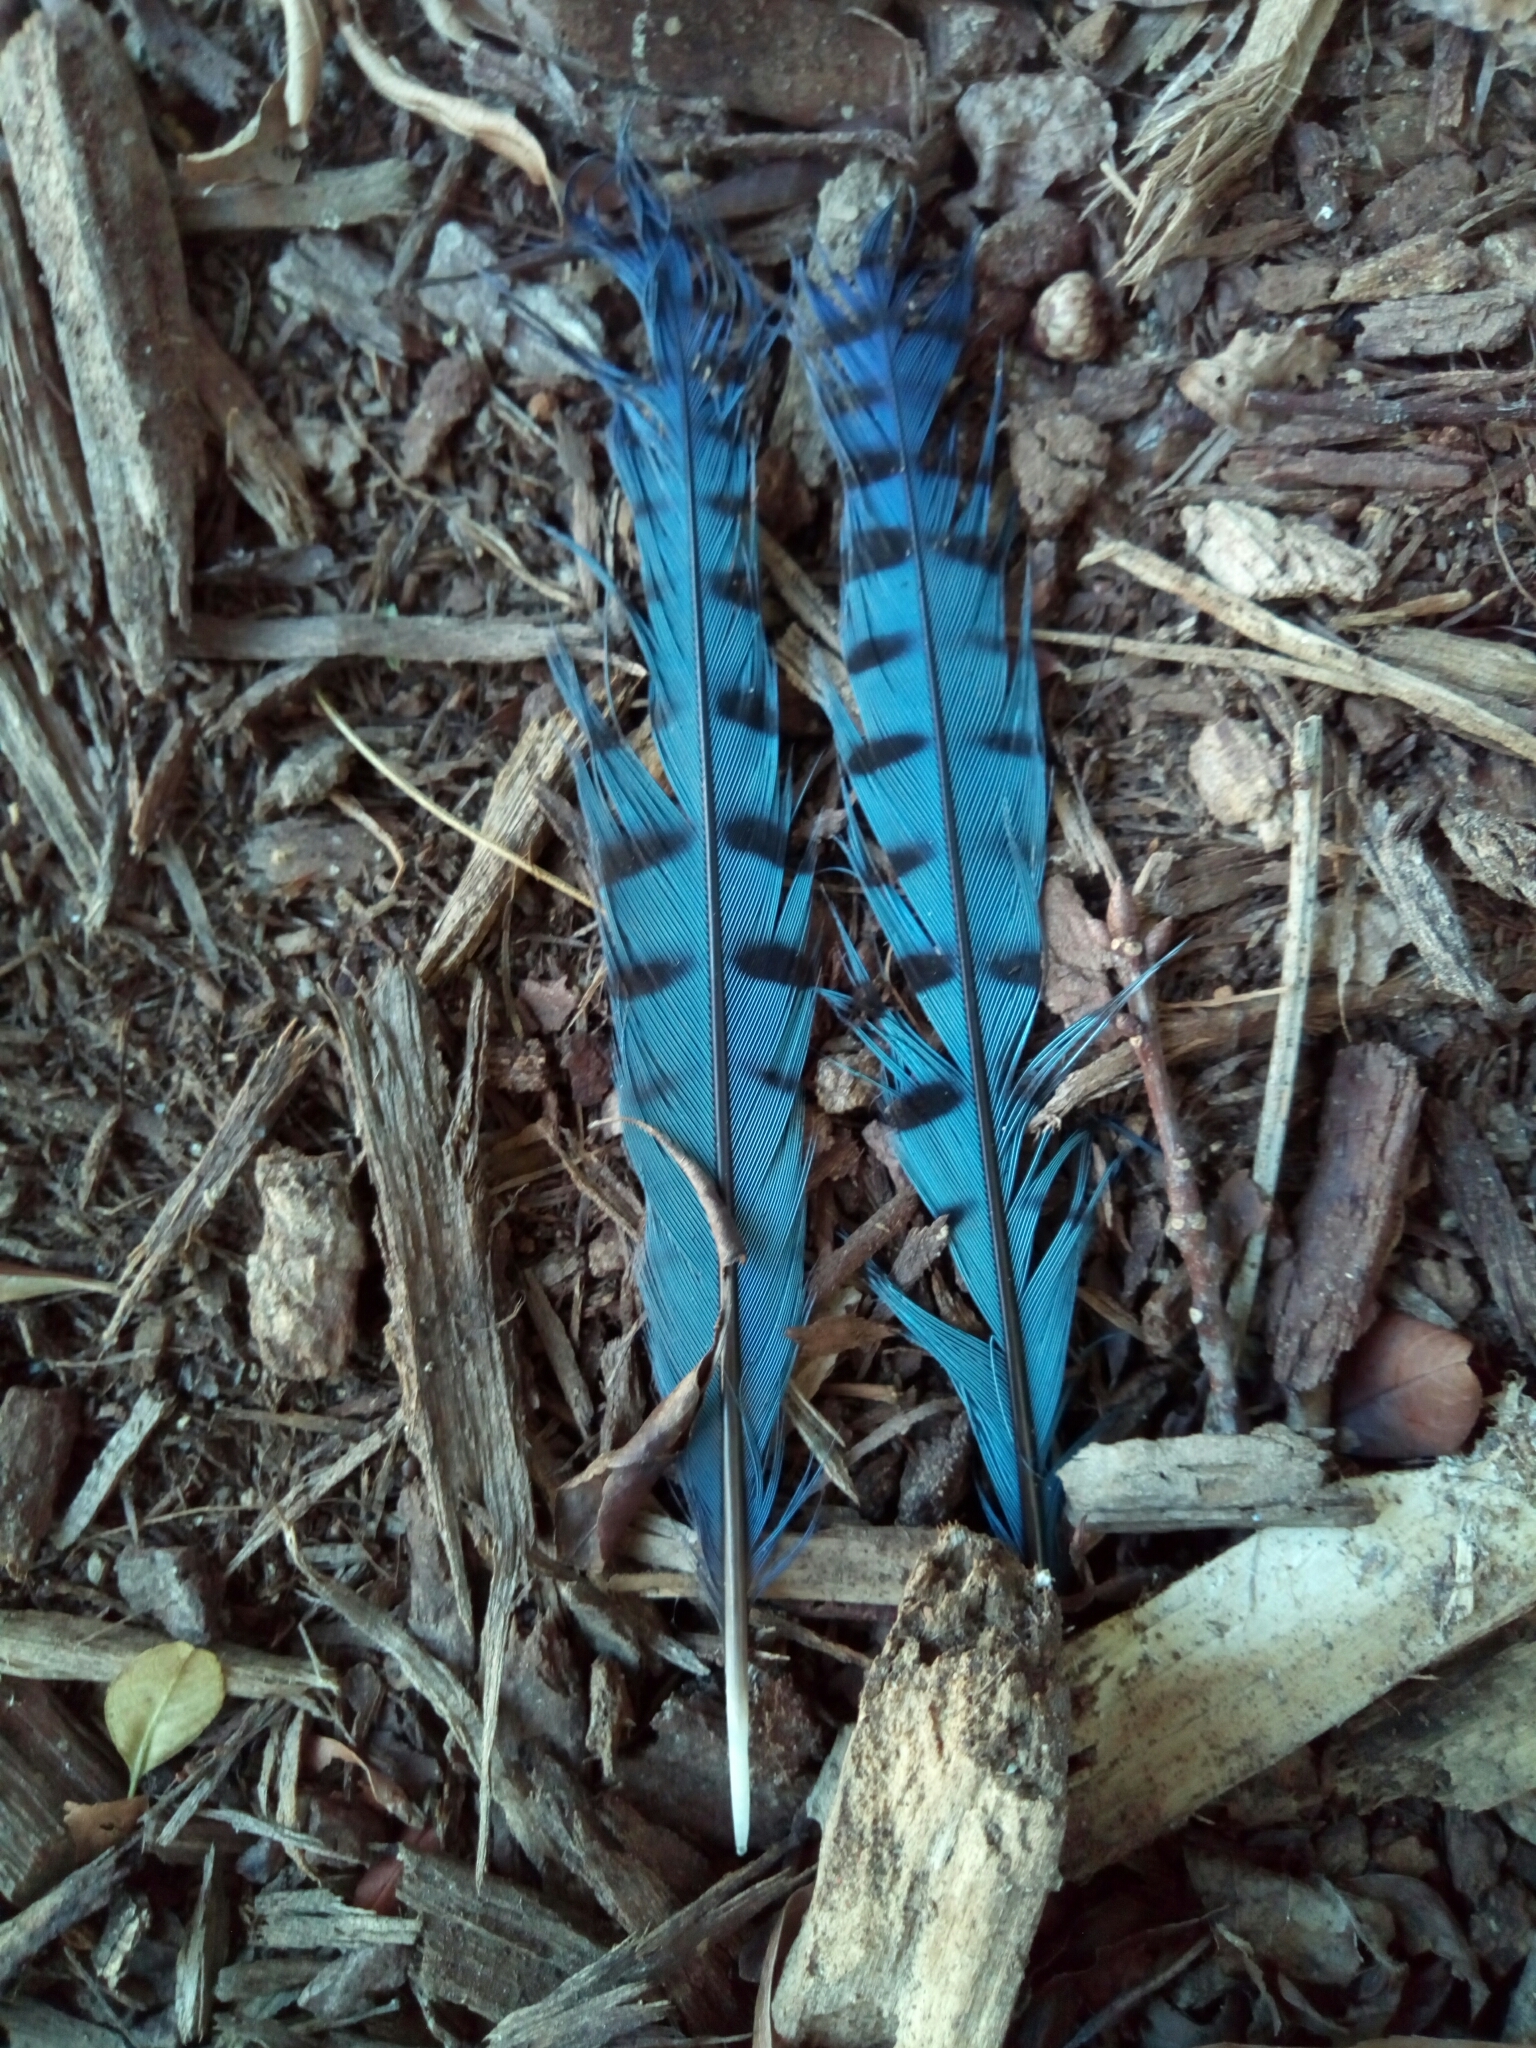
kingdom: Animalia
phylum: Chordata
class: Aves
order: Passeriformes
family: Corvidae
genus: Cyanocitta
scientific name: Cyanocitta cristata
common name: Blue jay
